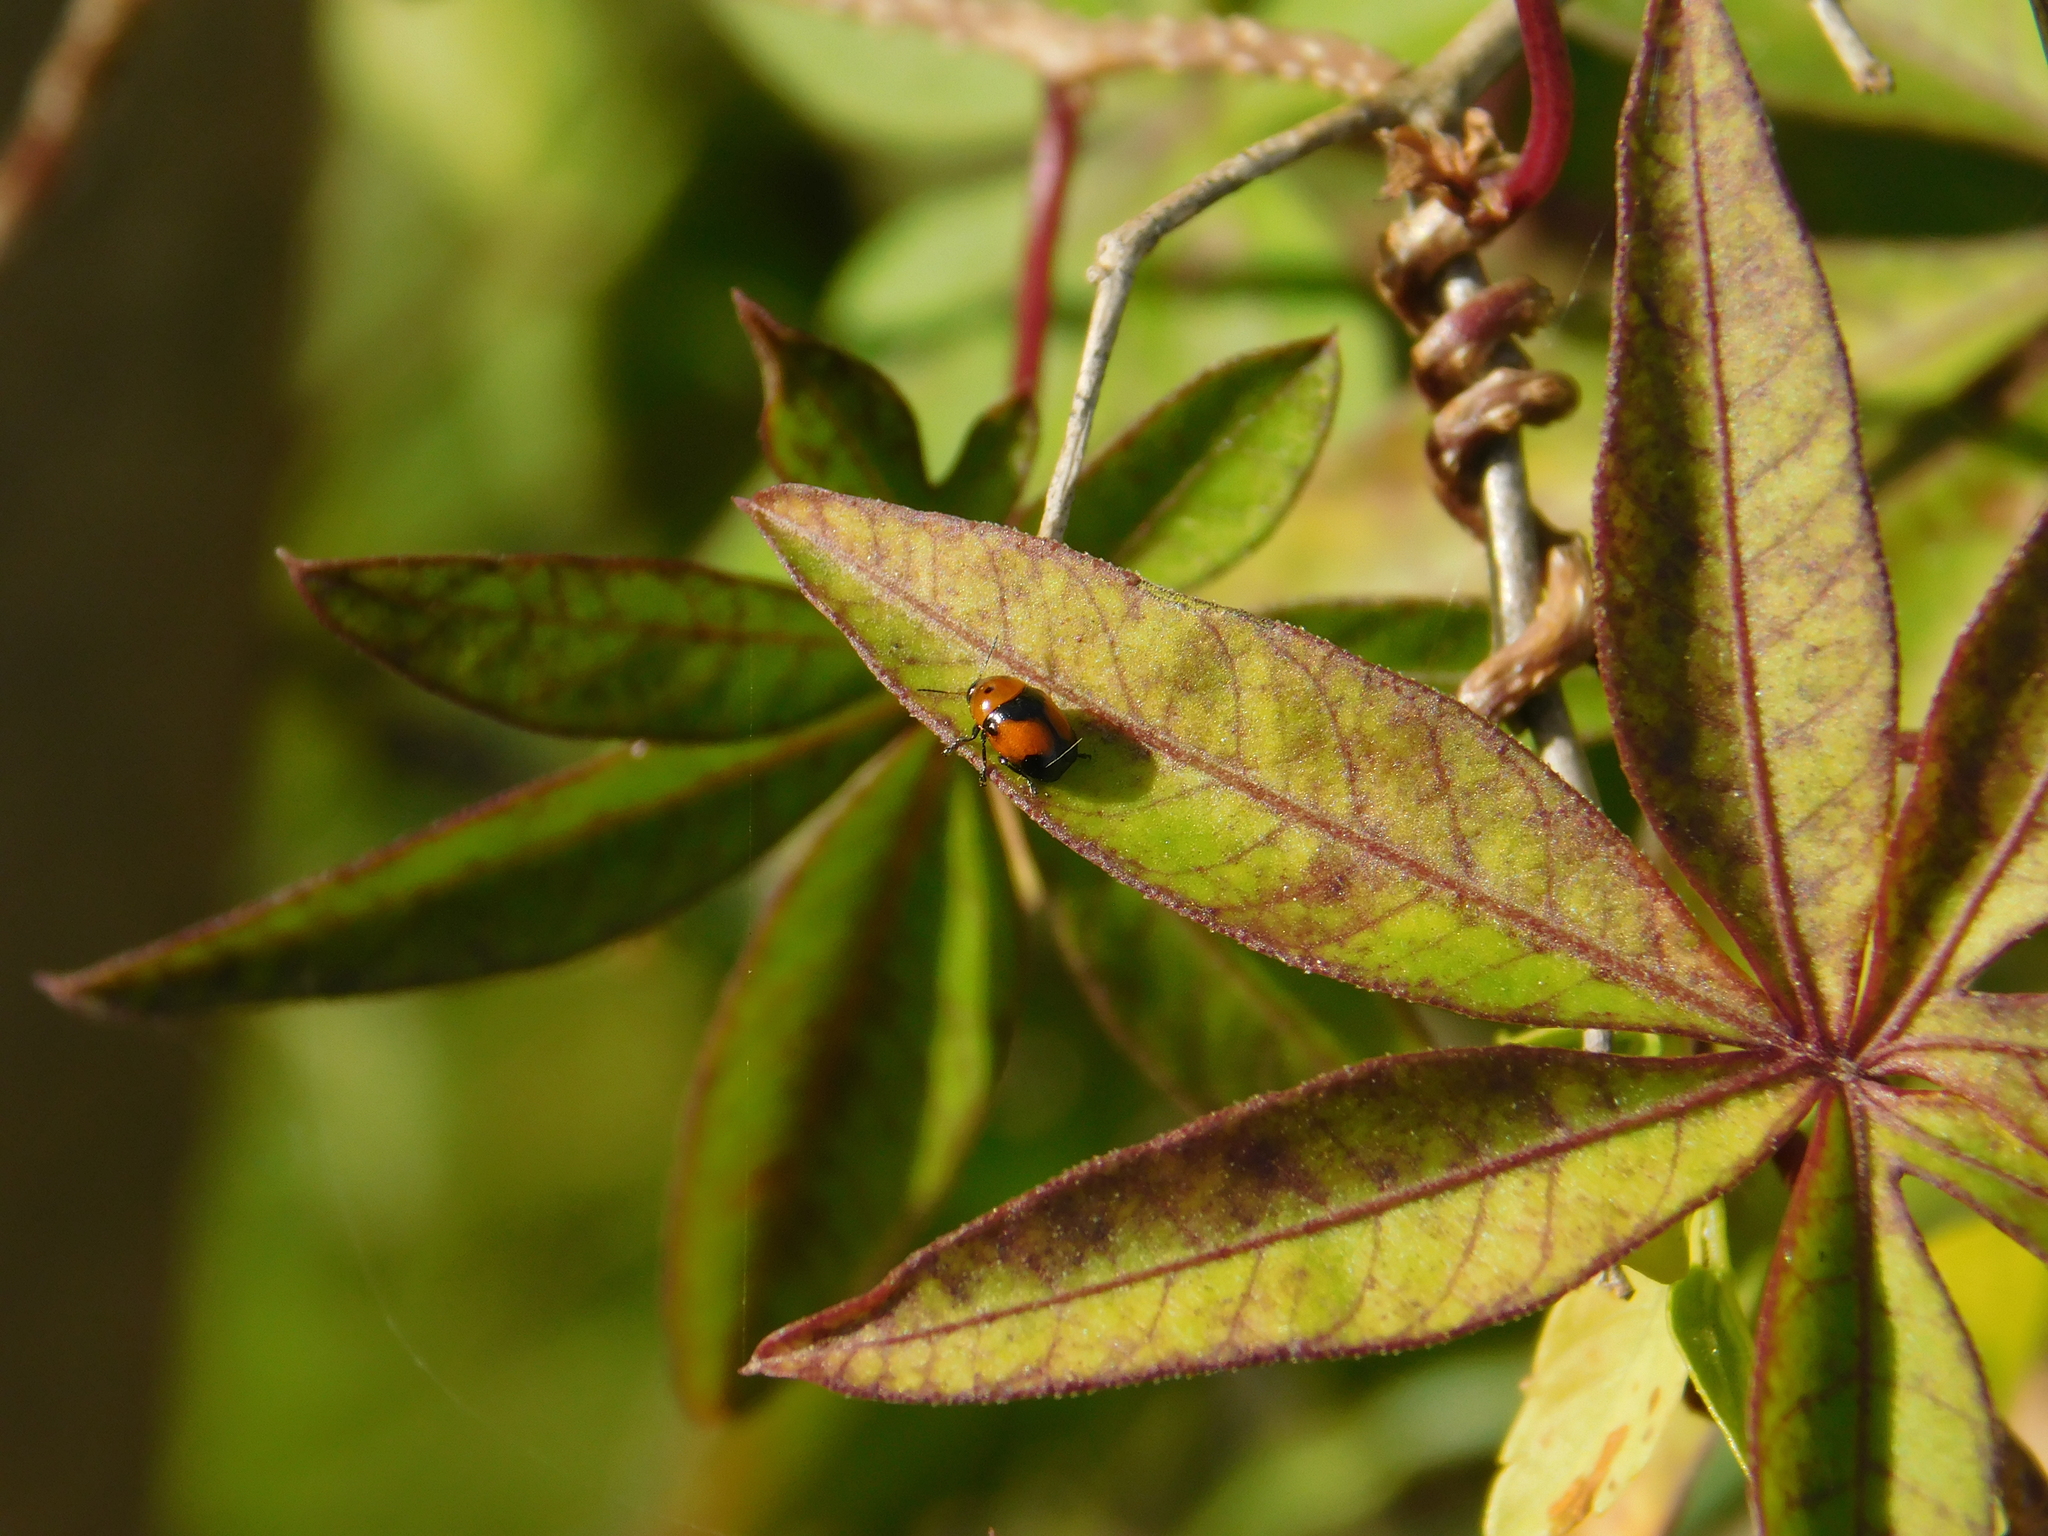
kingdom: Animalia
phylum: Arthropoda
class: Insecta
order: Coleoptera
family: Chrysomelidae
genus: Lexiphanes
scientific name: Lexiphanes
